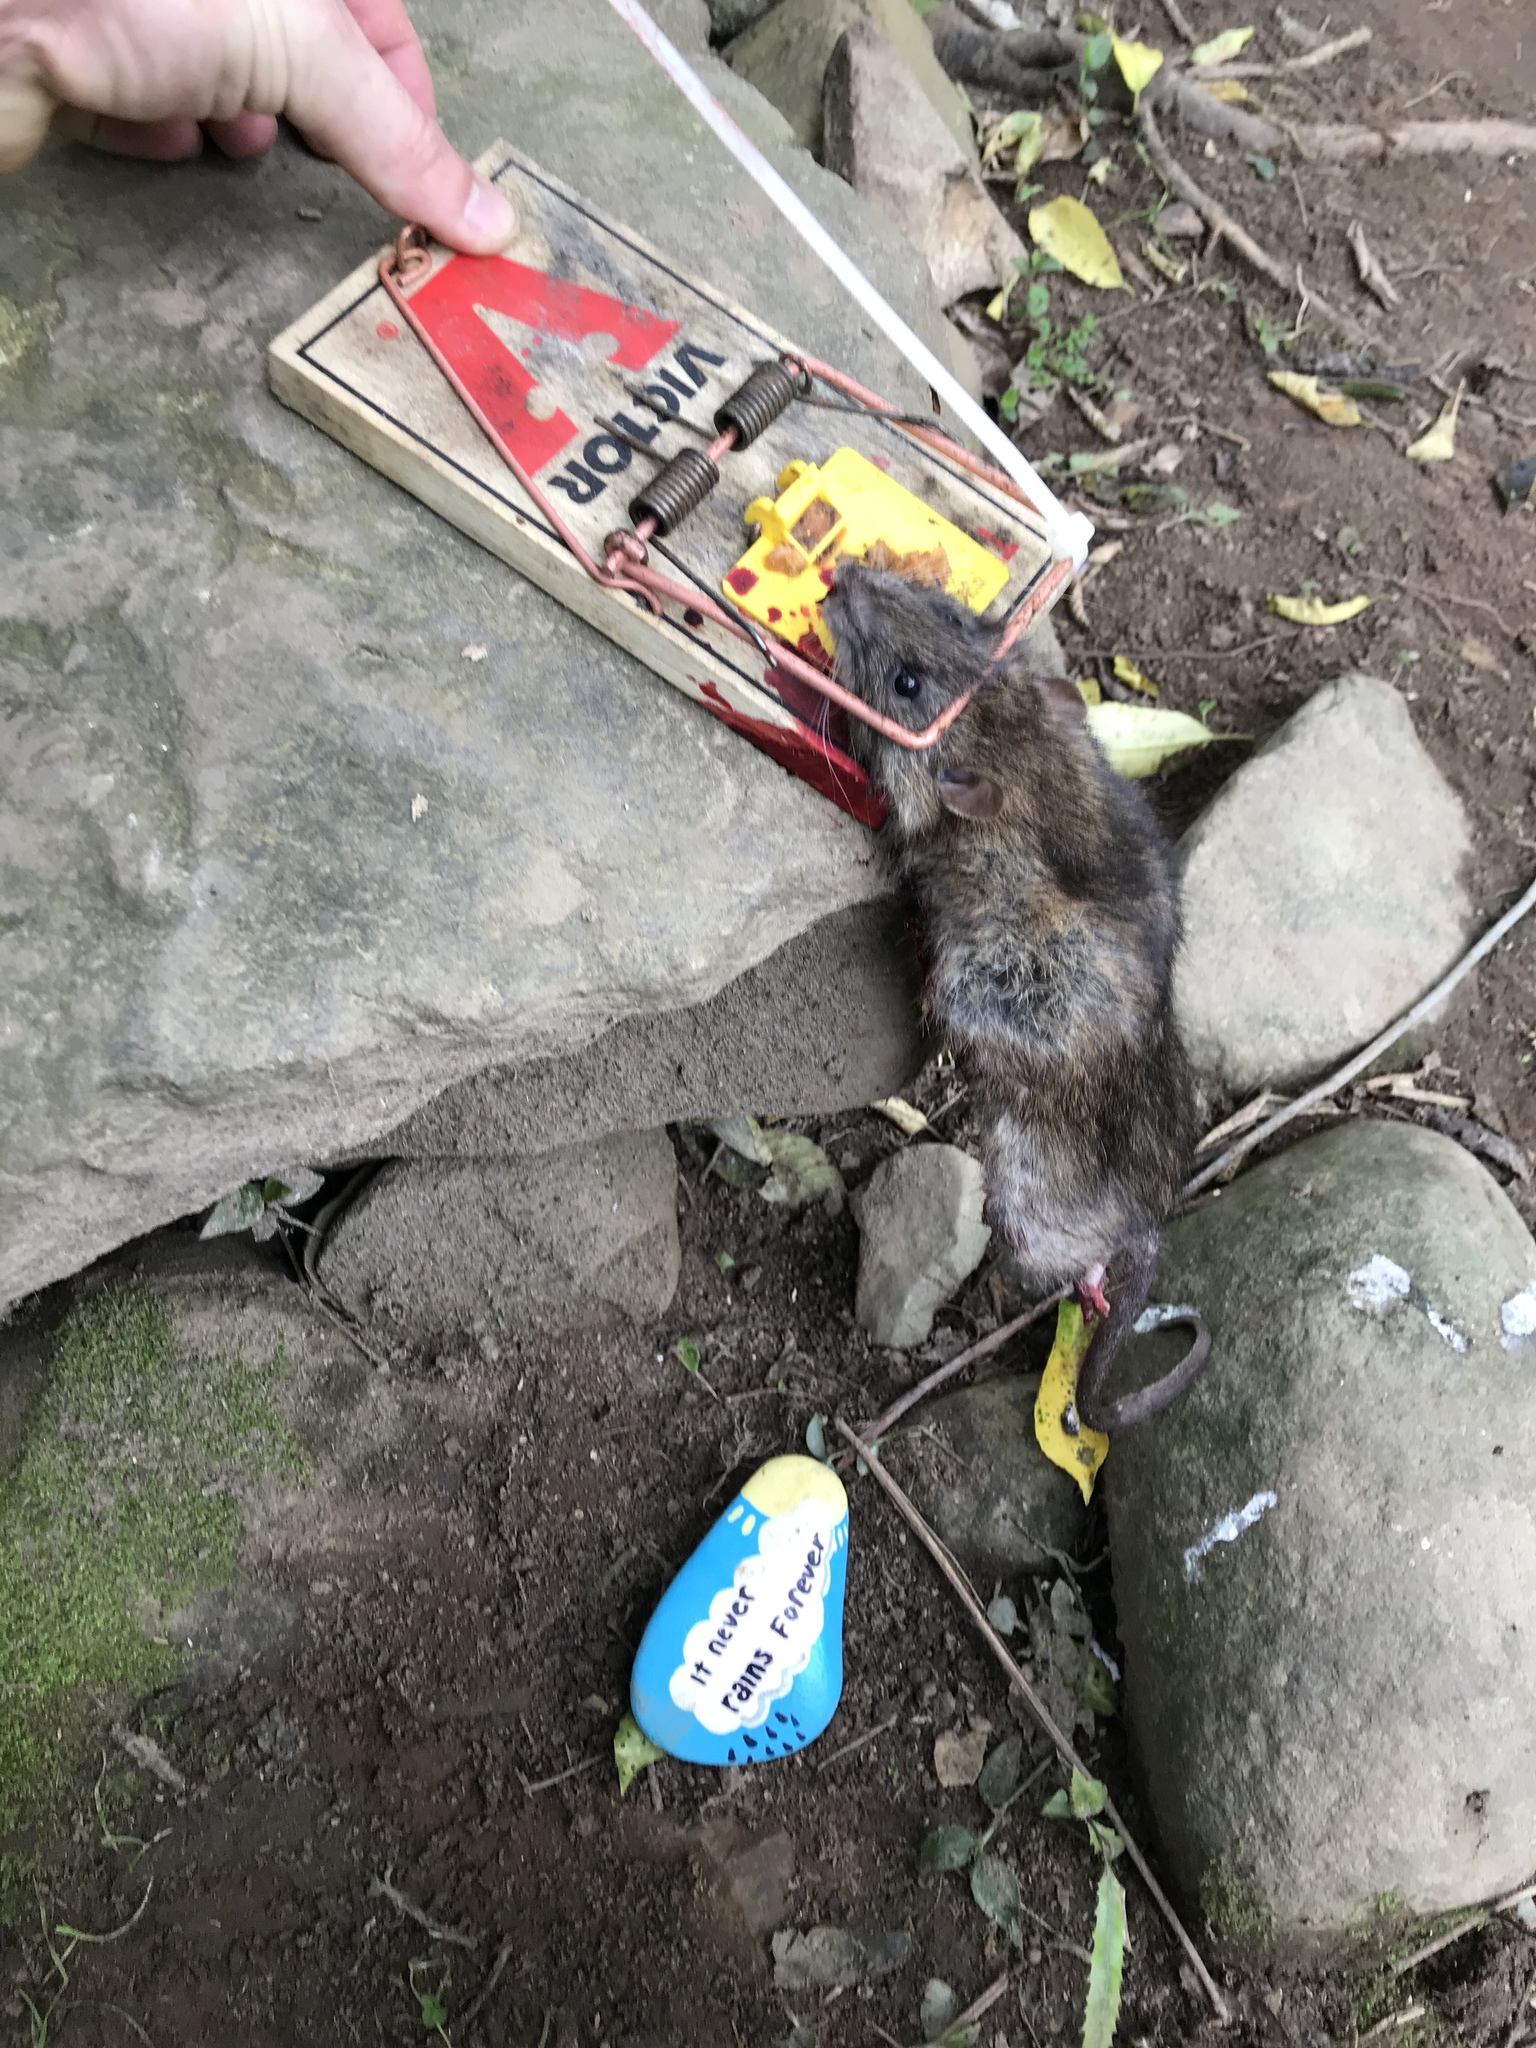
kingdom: Animalia
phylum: Chordata
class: Mammalia
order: Rodentia
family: Muridae
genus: Rattus
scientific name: Rattus rattus
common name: Black rat
